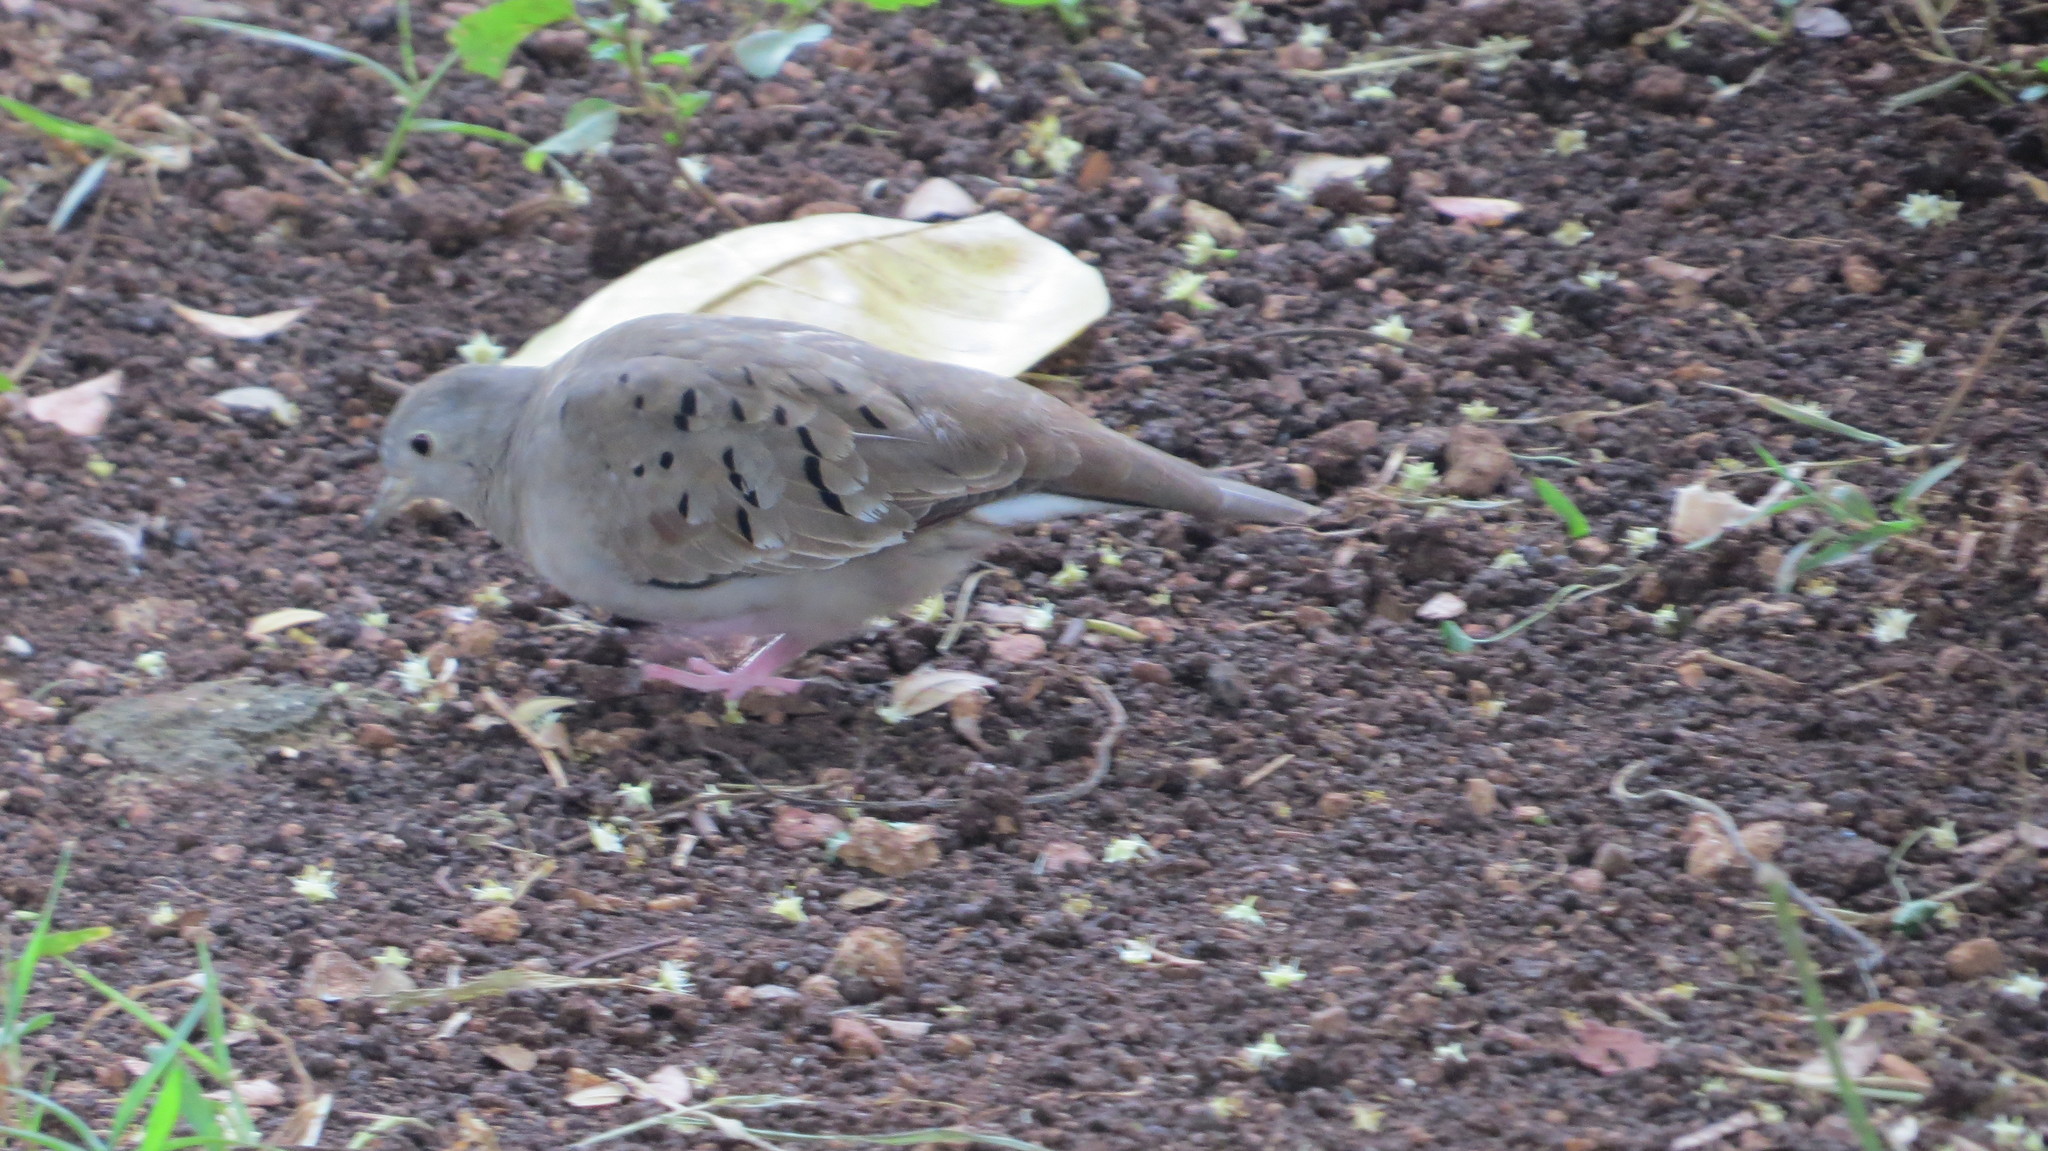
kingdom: Animalia
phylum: Chordata
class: Aves
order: Columbiformes
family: Columbidae
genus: Columbina
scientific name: Columbina talpacoti
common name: Ruddy ground dove
